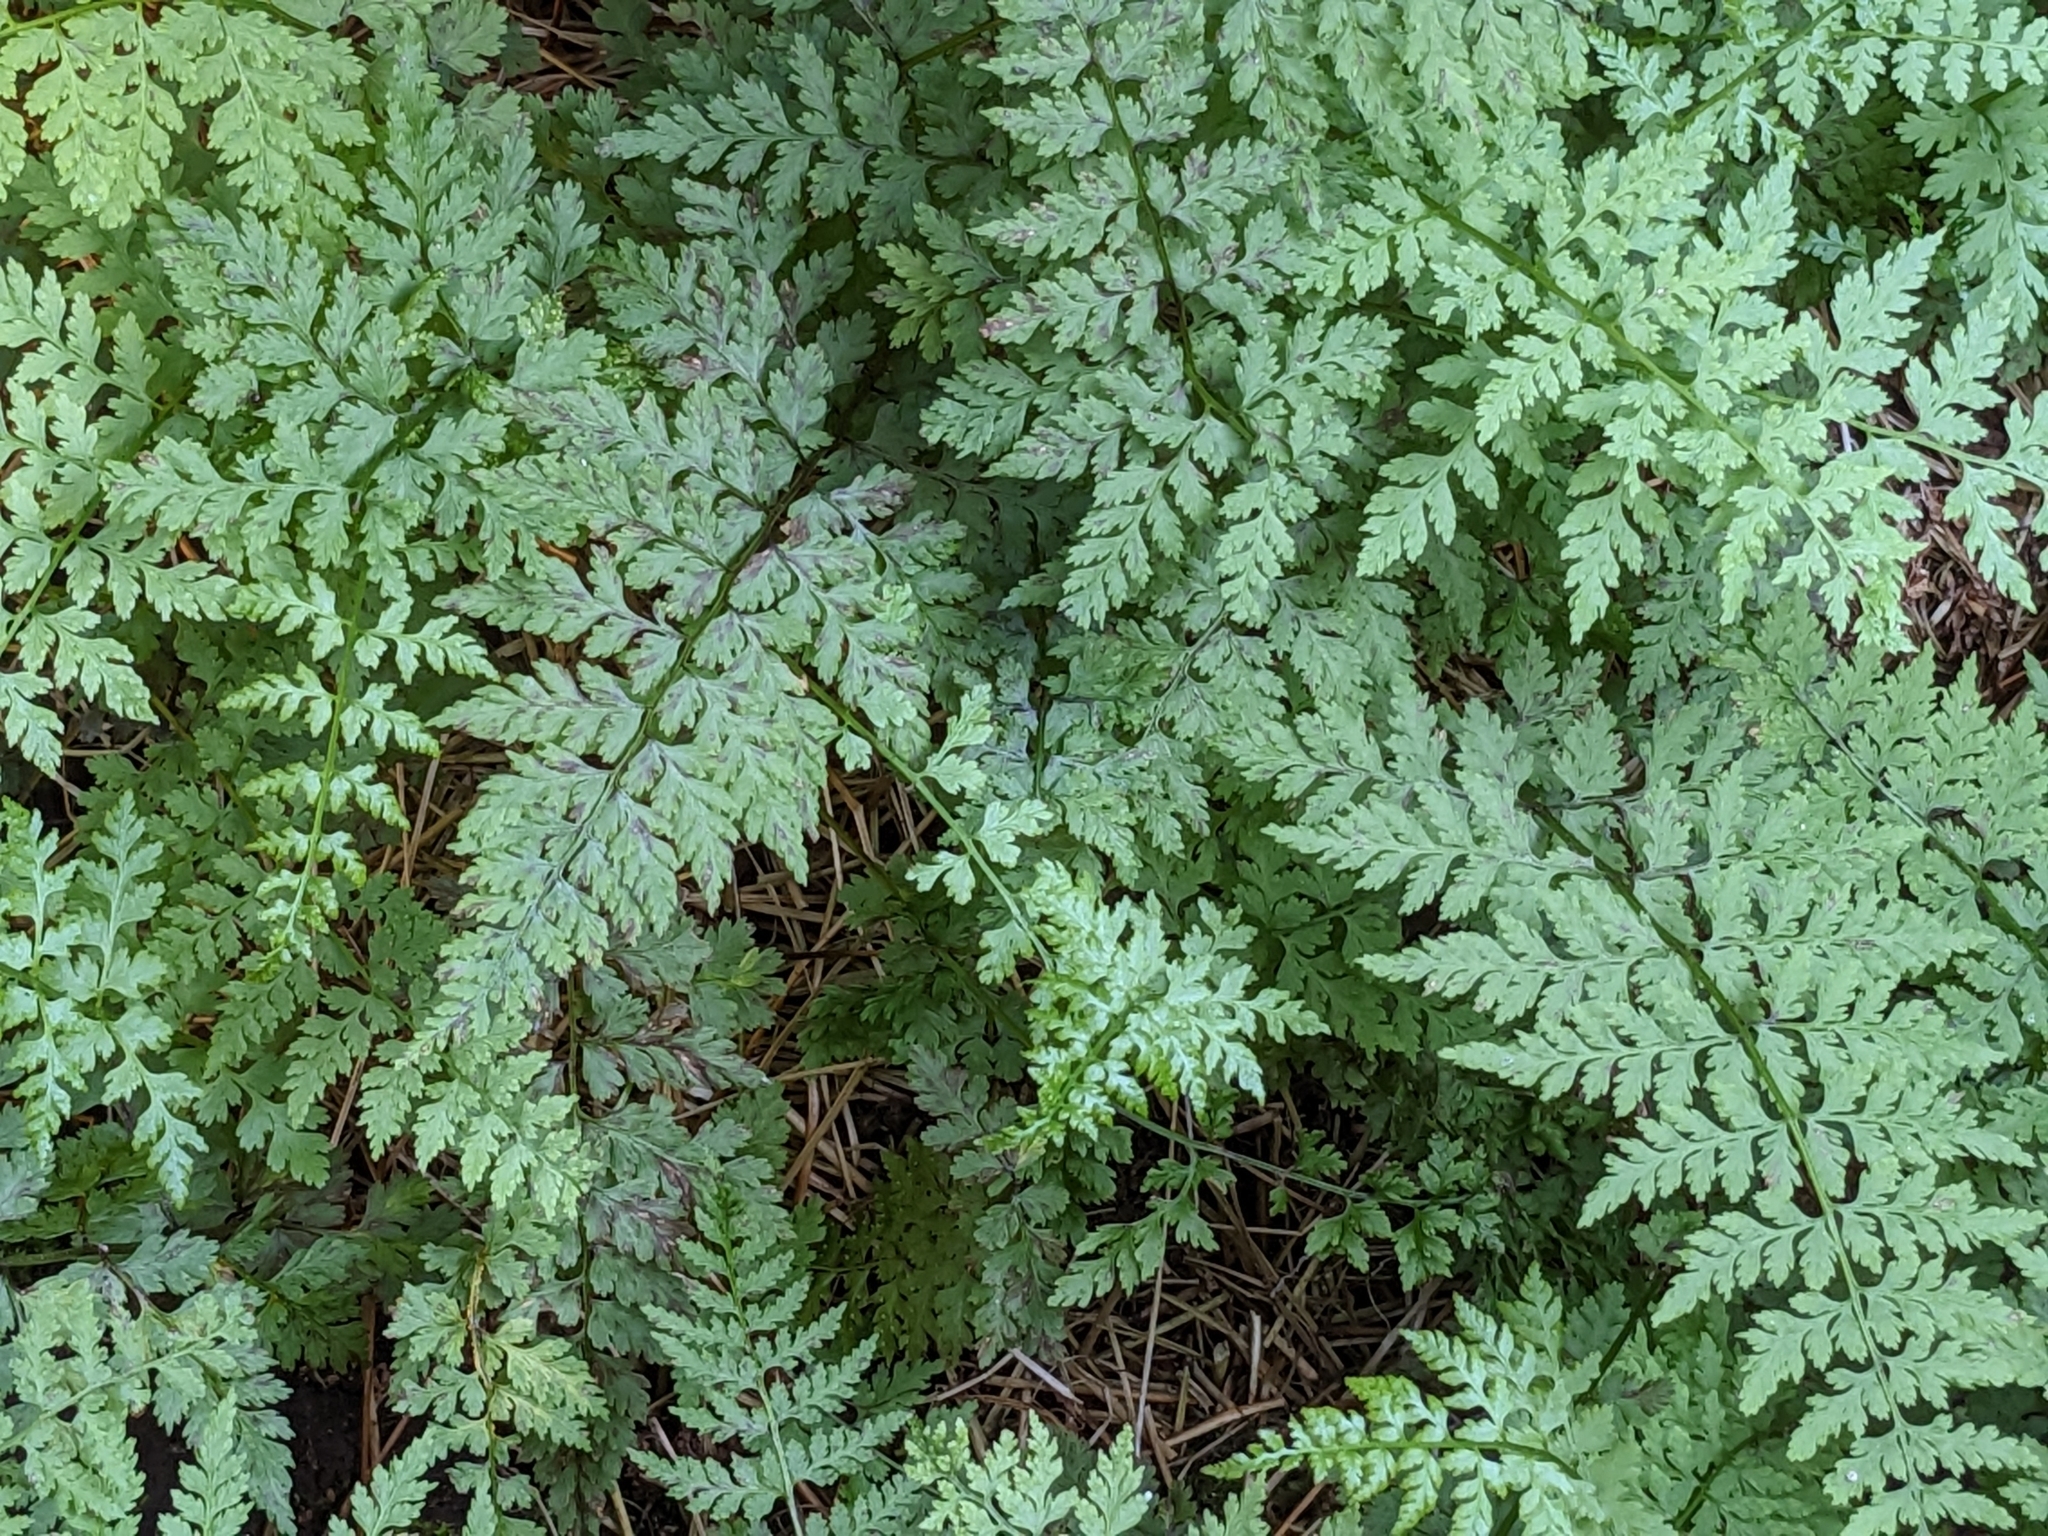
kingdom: Plantae
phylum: Tracheophyta
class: Polypodiopsida
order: Polypodiales
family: Cystopteridaceae
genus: Cystopteris
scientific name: Cystopteris fragilis
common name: Brittle bladder fern
